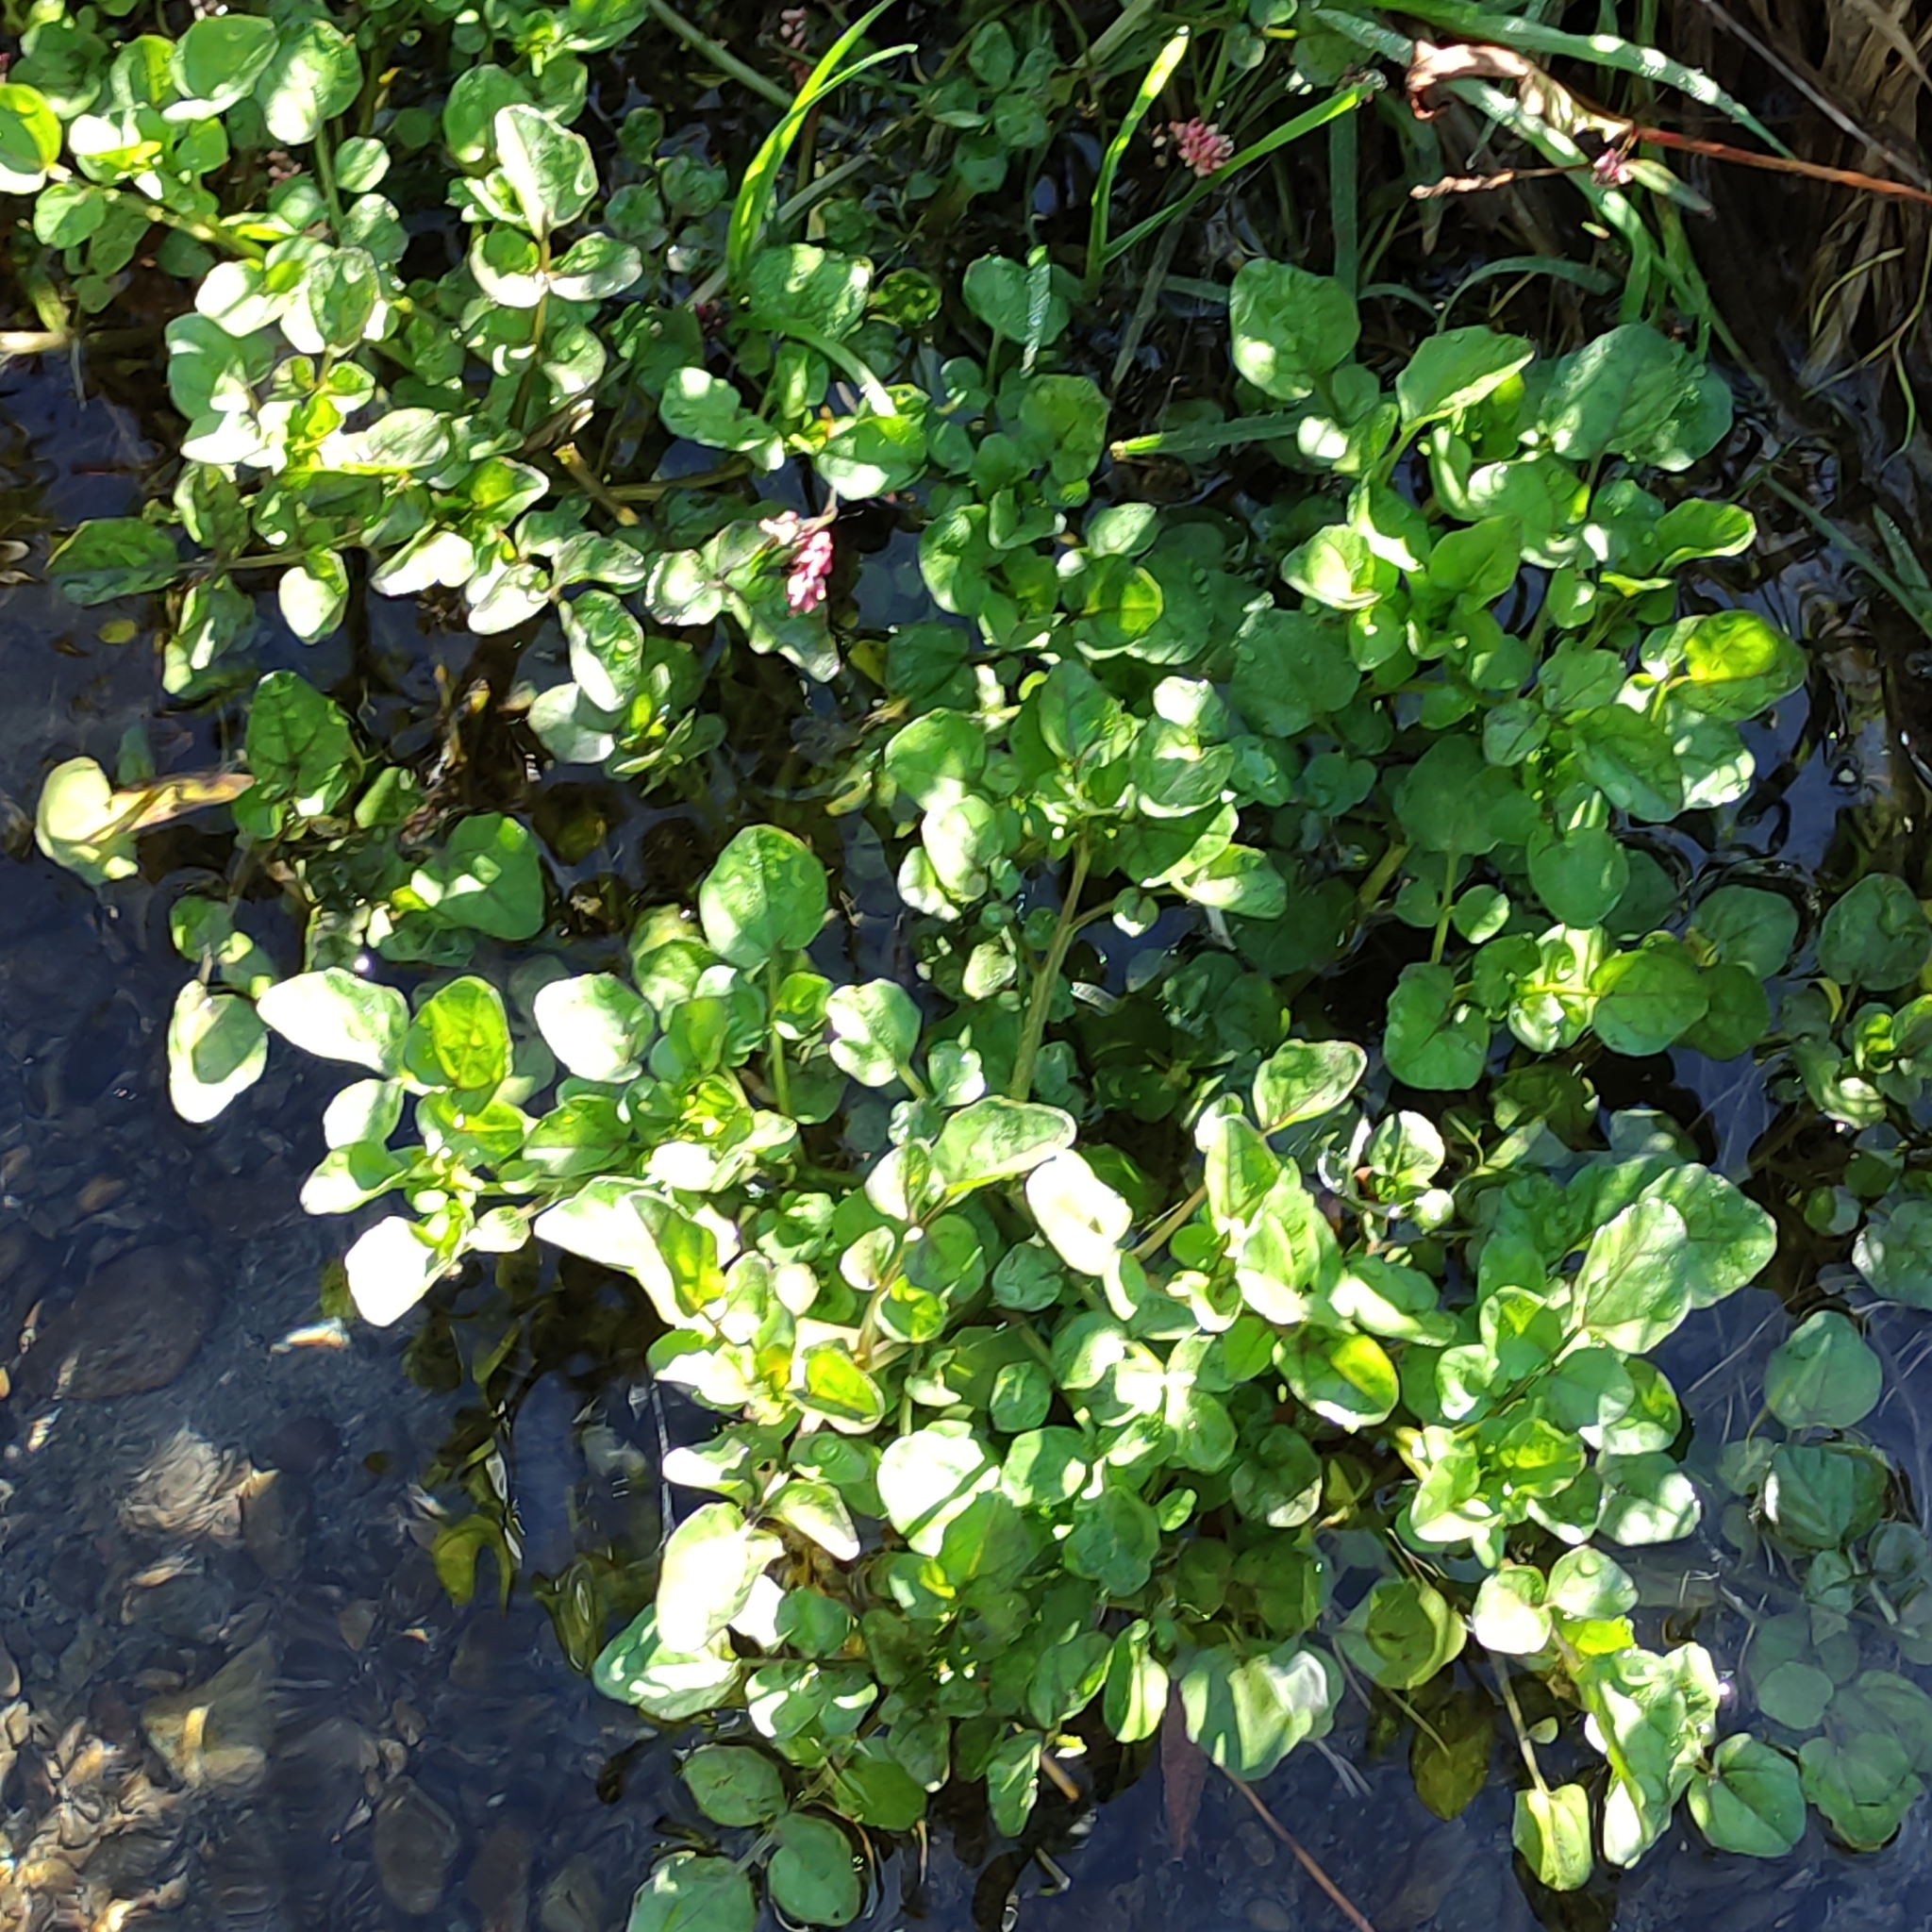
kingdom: Plantae
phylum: Tracheophyta
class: Magnoliopsida
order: Brassicales
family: Brassicaceae
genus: Nasturtium
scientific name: Nasturtium officinale
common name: Watercress
